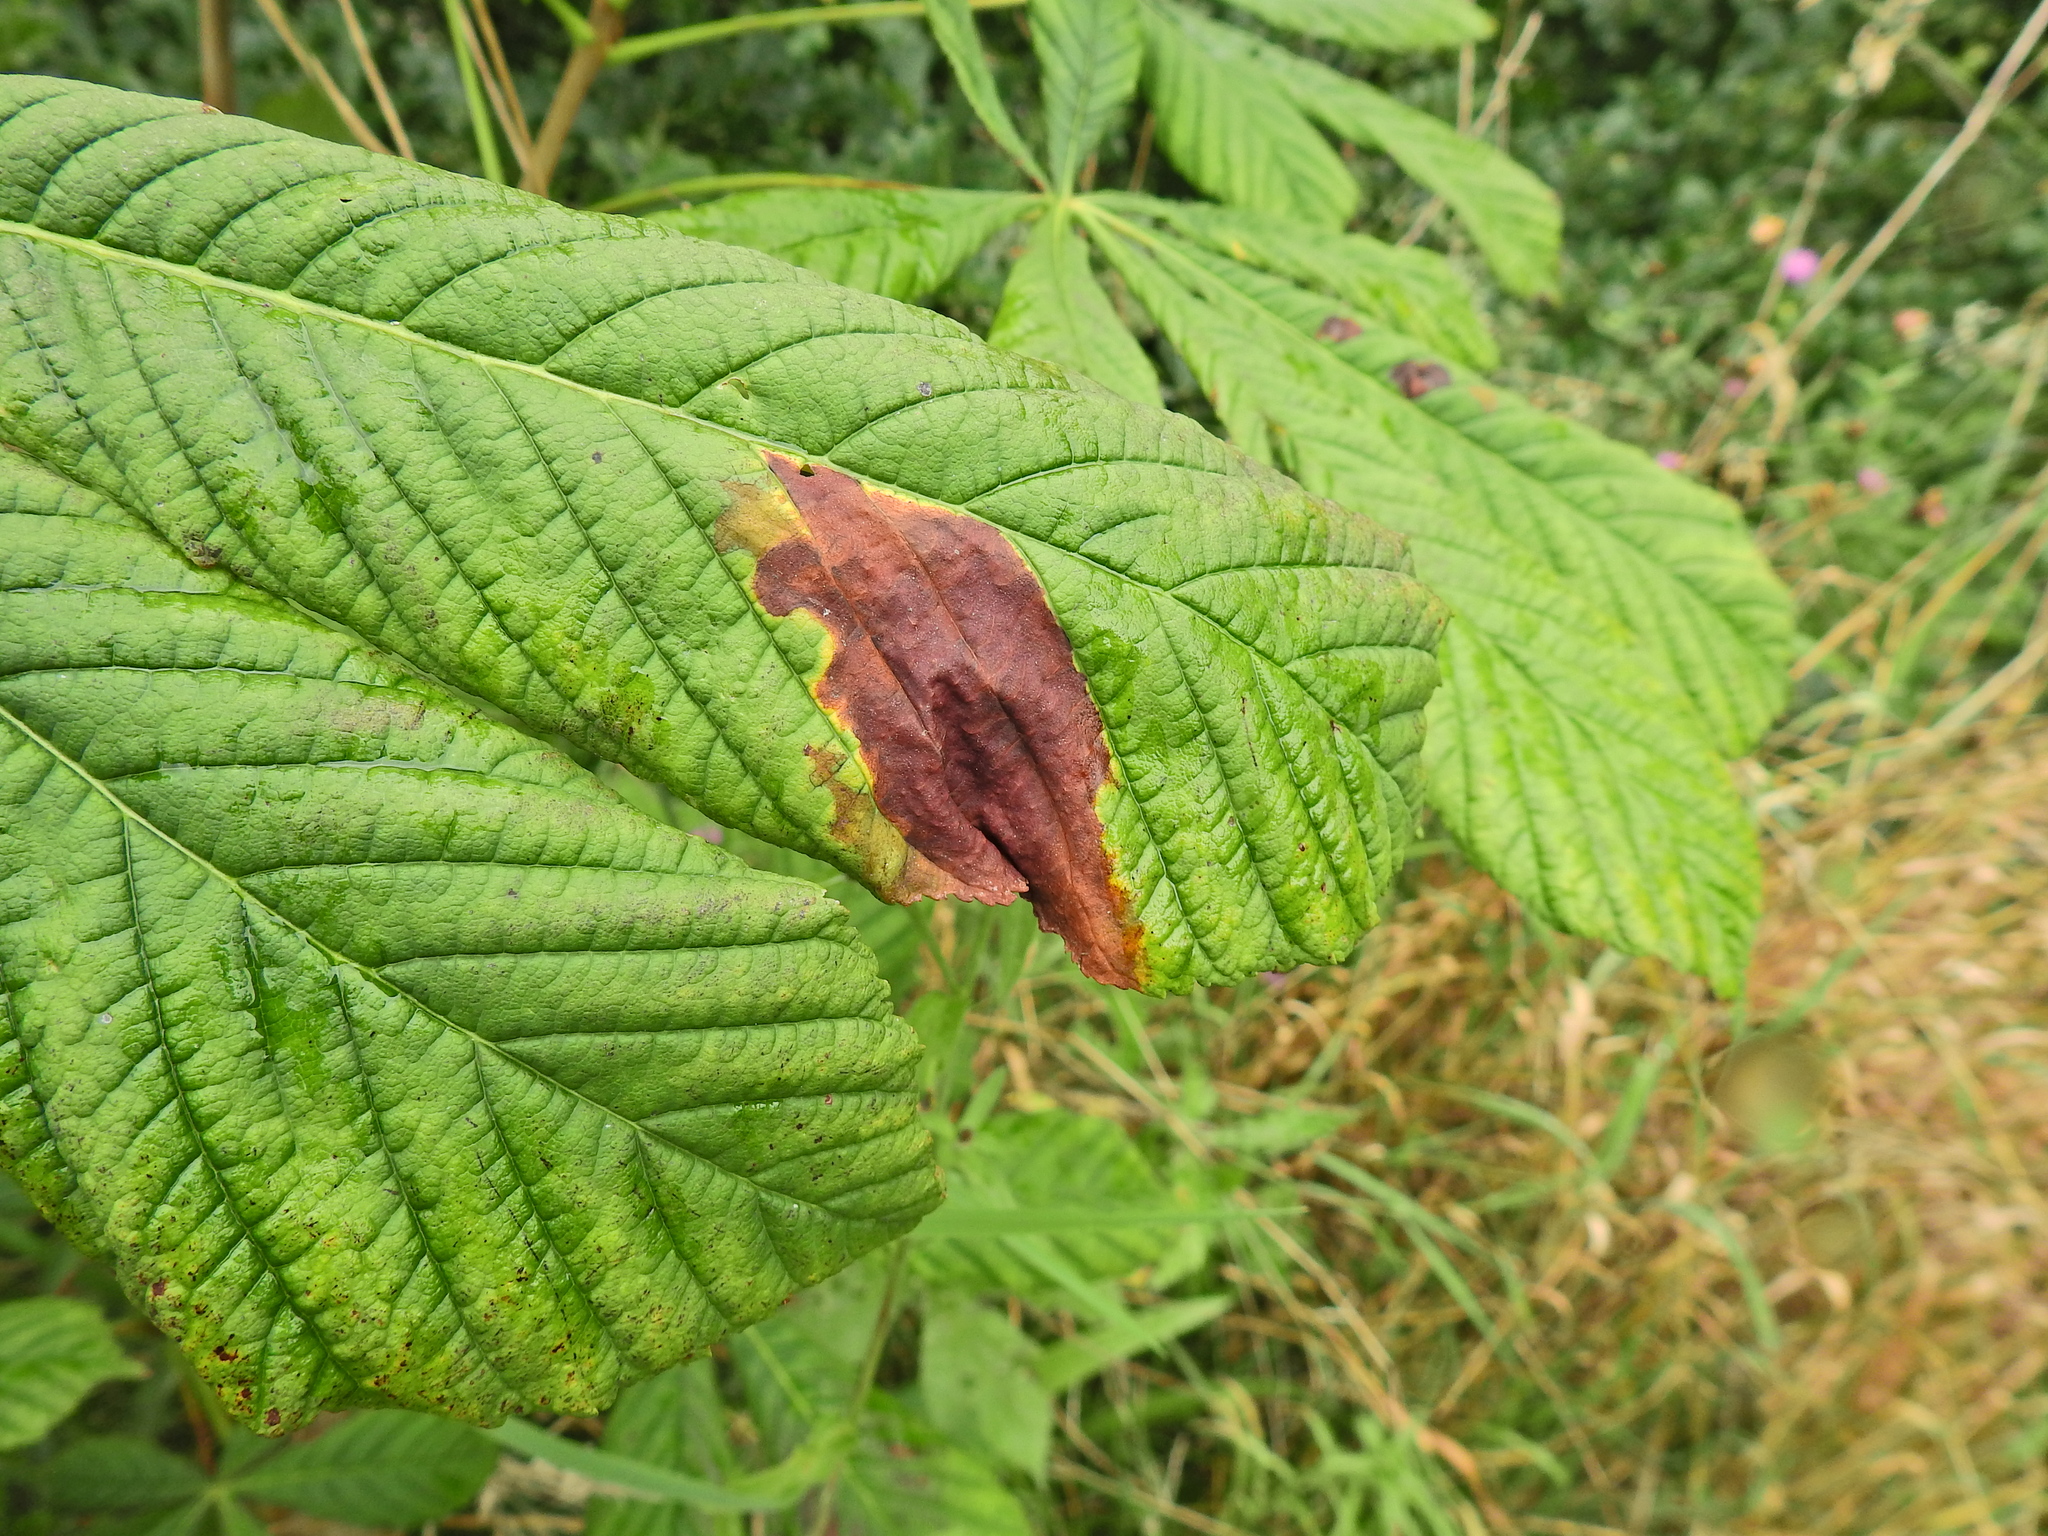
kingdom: Animalia
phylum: Arthropoda
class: Insecta
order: Lepidoptera
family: Gracillariidae
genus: Cameraria
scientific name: Cameraria ohridella
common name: Horse-chestnut leaf-miner
